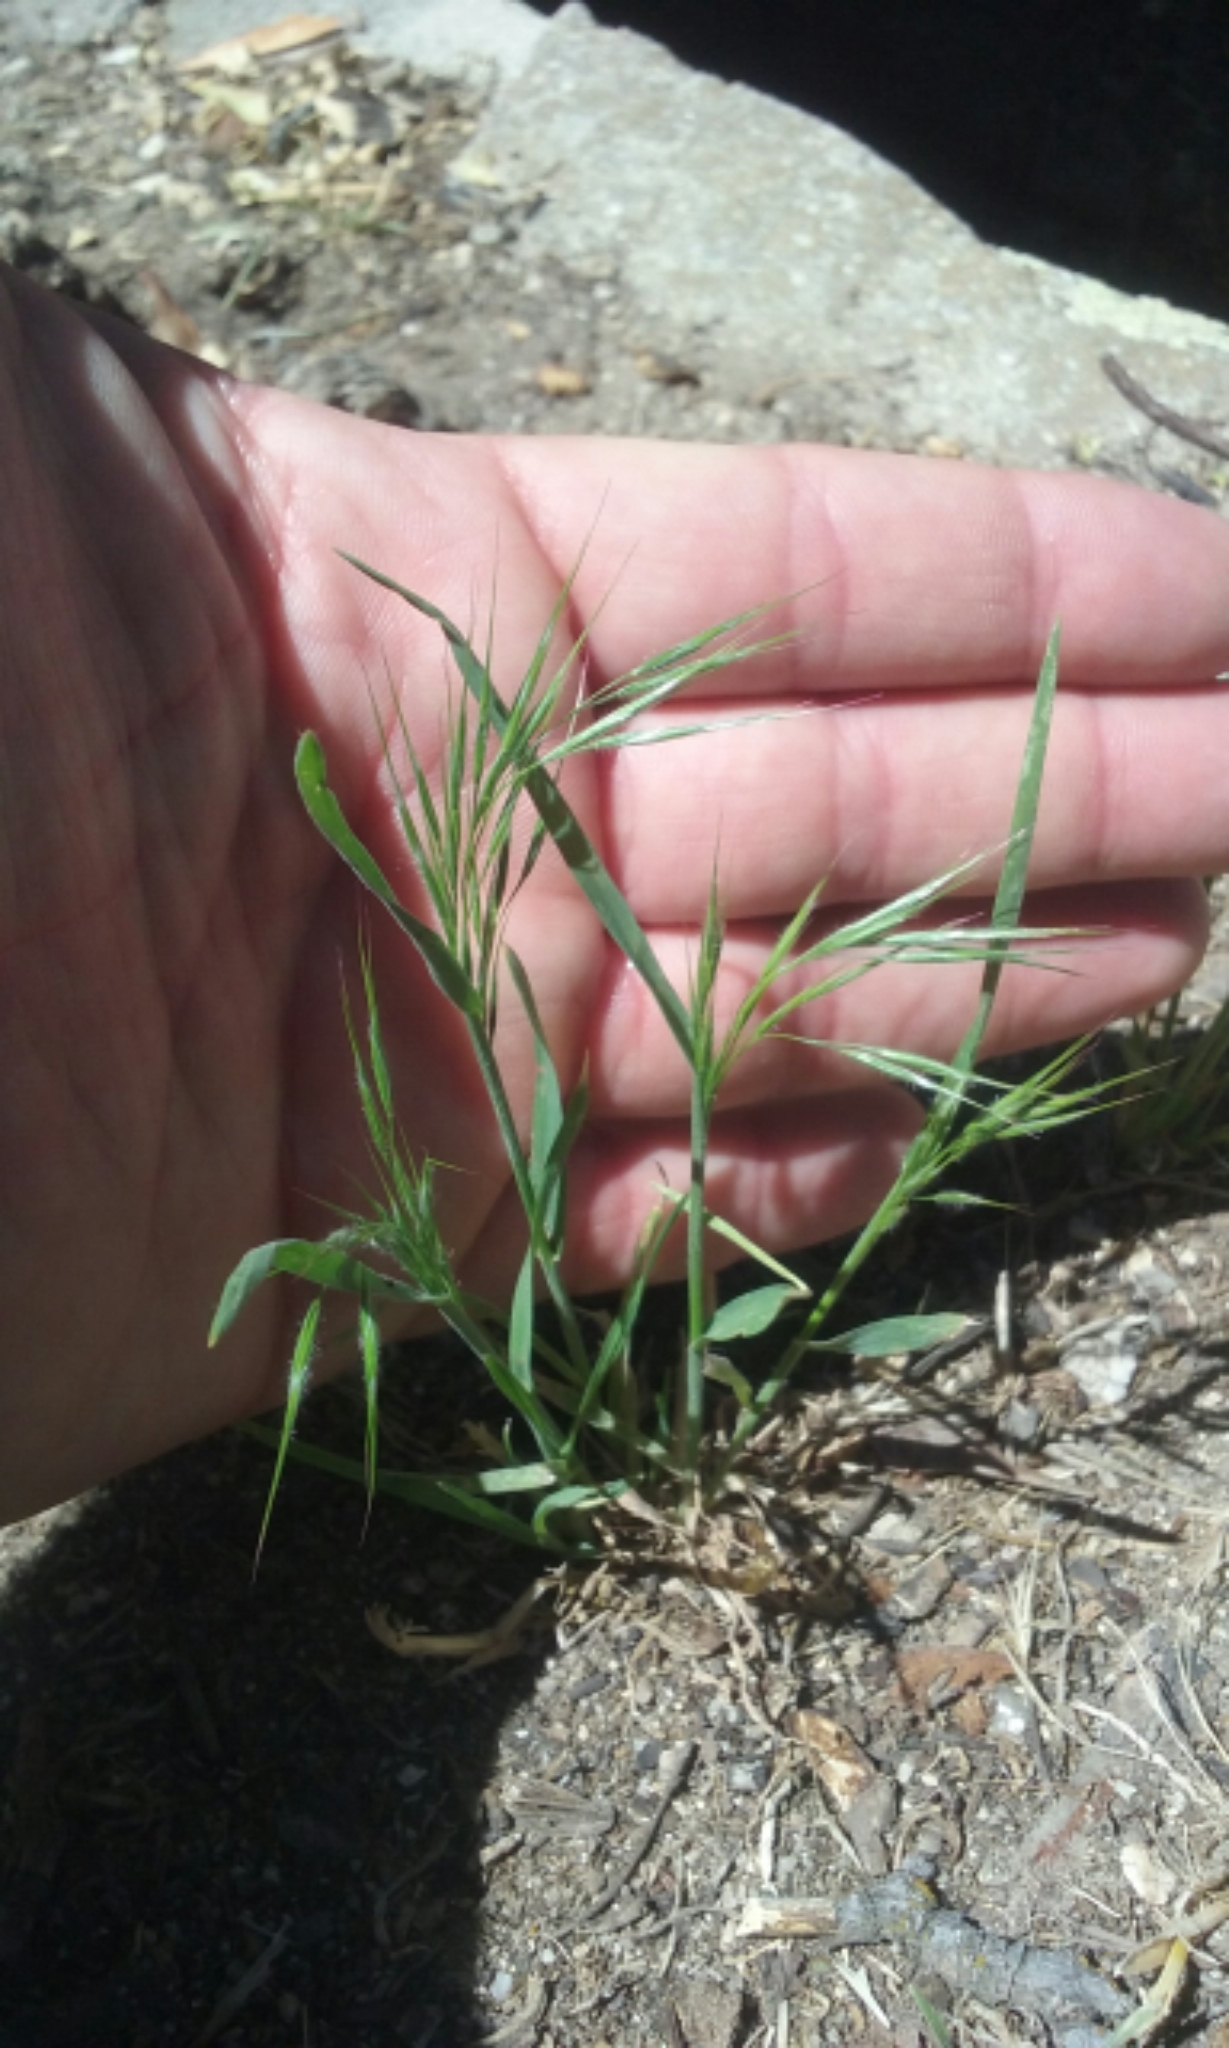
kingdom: Plantae
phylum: Tracheophyta
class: Liliopsida
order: Poales
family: Poaceae
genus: Bromus
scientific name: Bromus tectorum
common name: Cheatgrass
